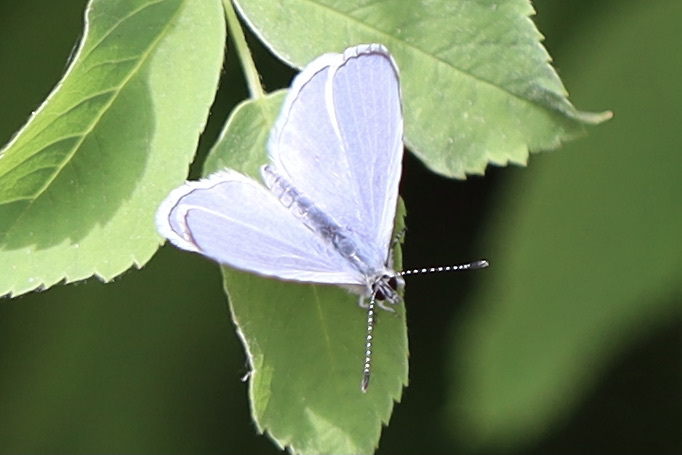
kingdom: Animalia
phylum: Arthropoda
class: Insecta
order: Lepidoptera
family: Lycaenidae
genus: Celastrina
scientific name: Celastrina ladon
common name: Spring azure
